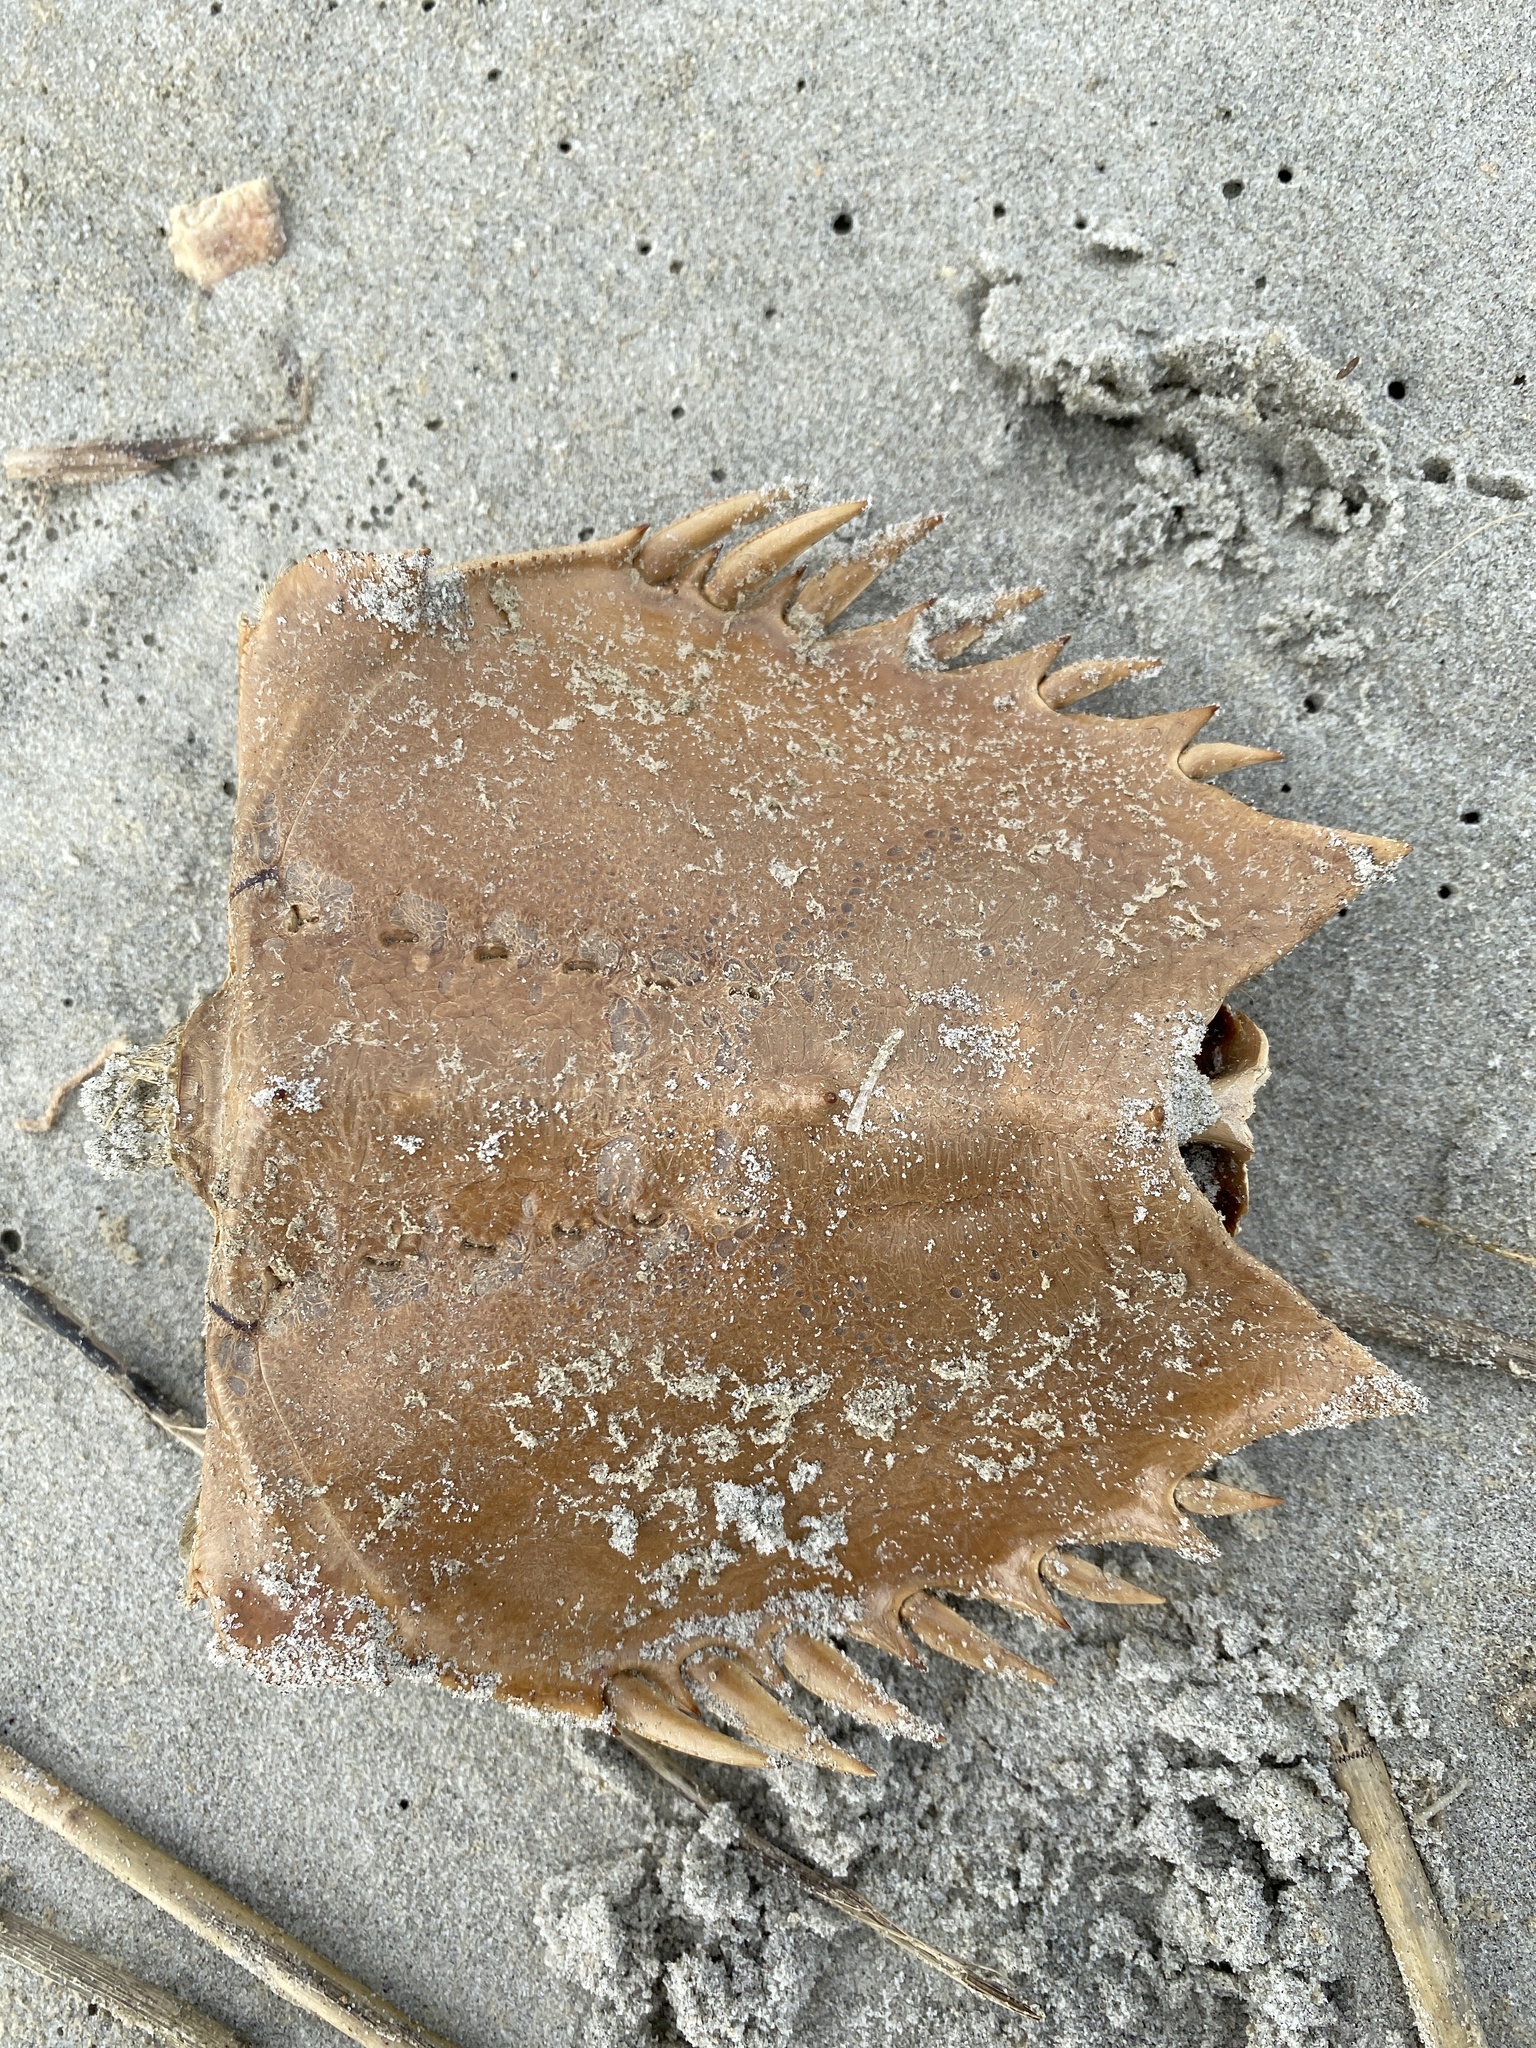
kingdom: Animalia
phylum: Arthropoda
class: Merostomata
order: Xiphosurida
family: Limulidae
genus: Limulus
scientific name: Limulus polyphemus
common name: Horseshoe crab
